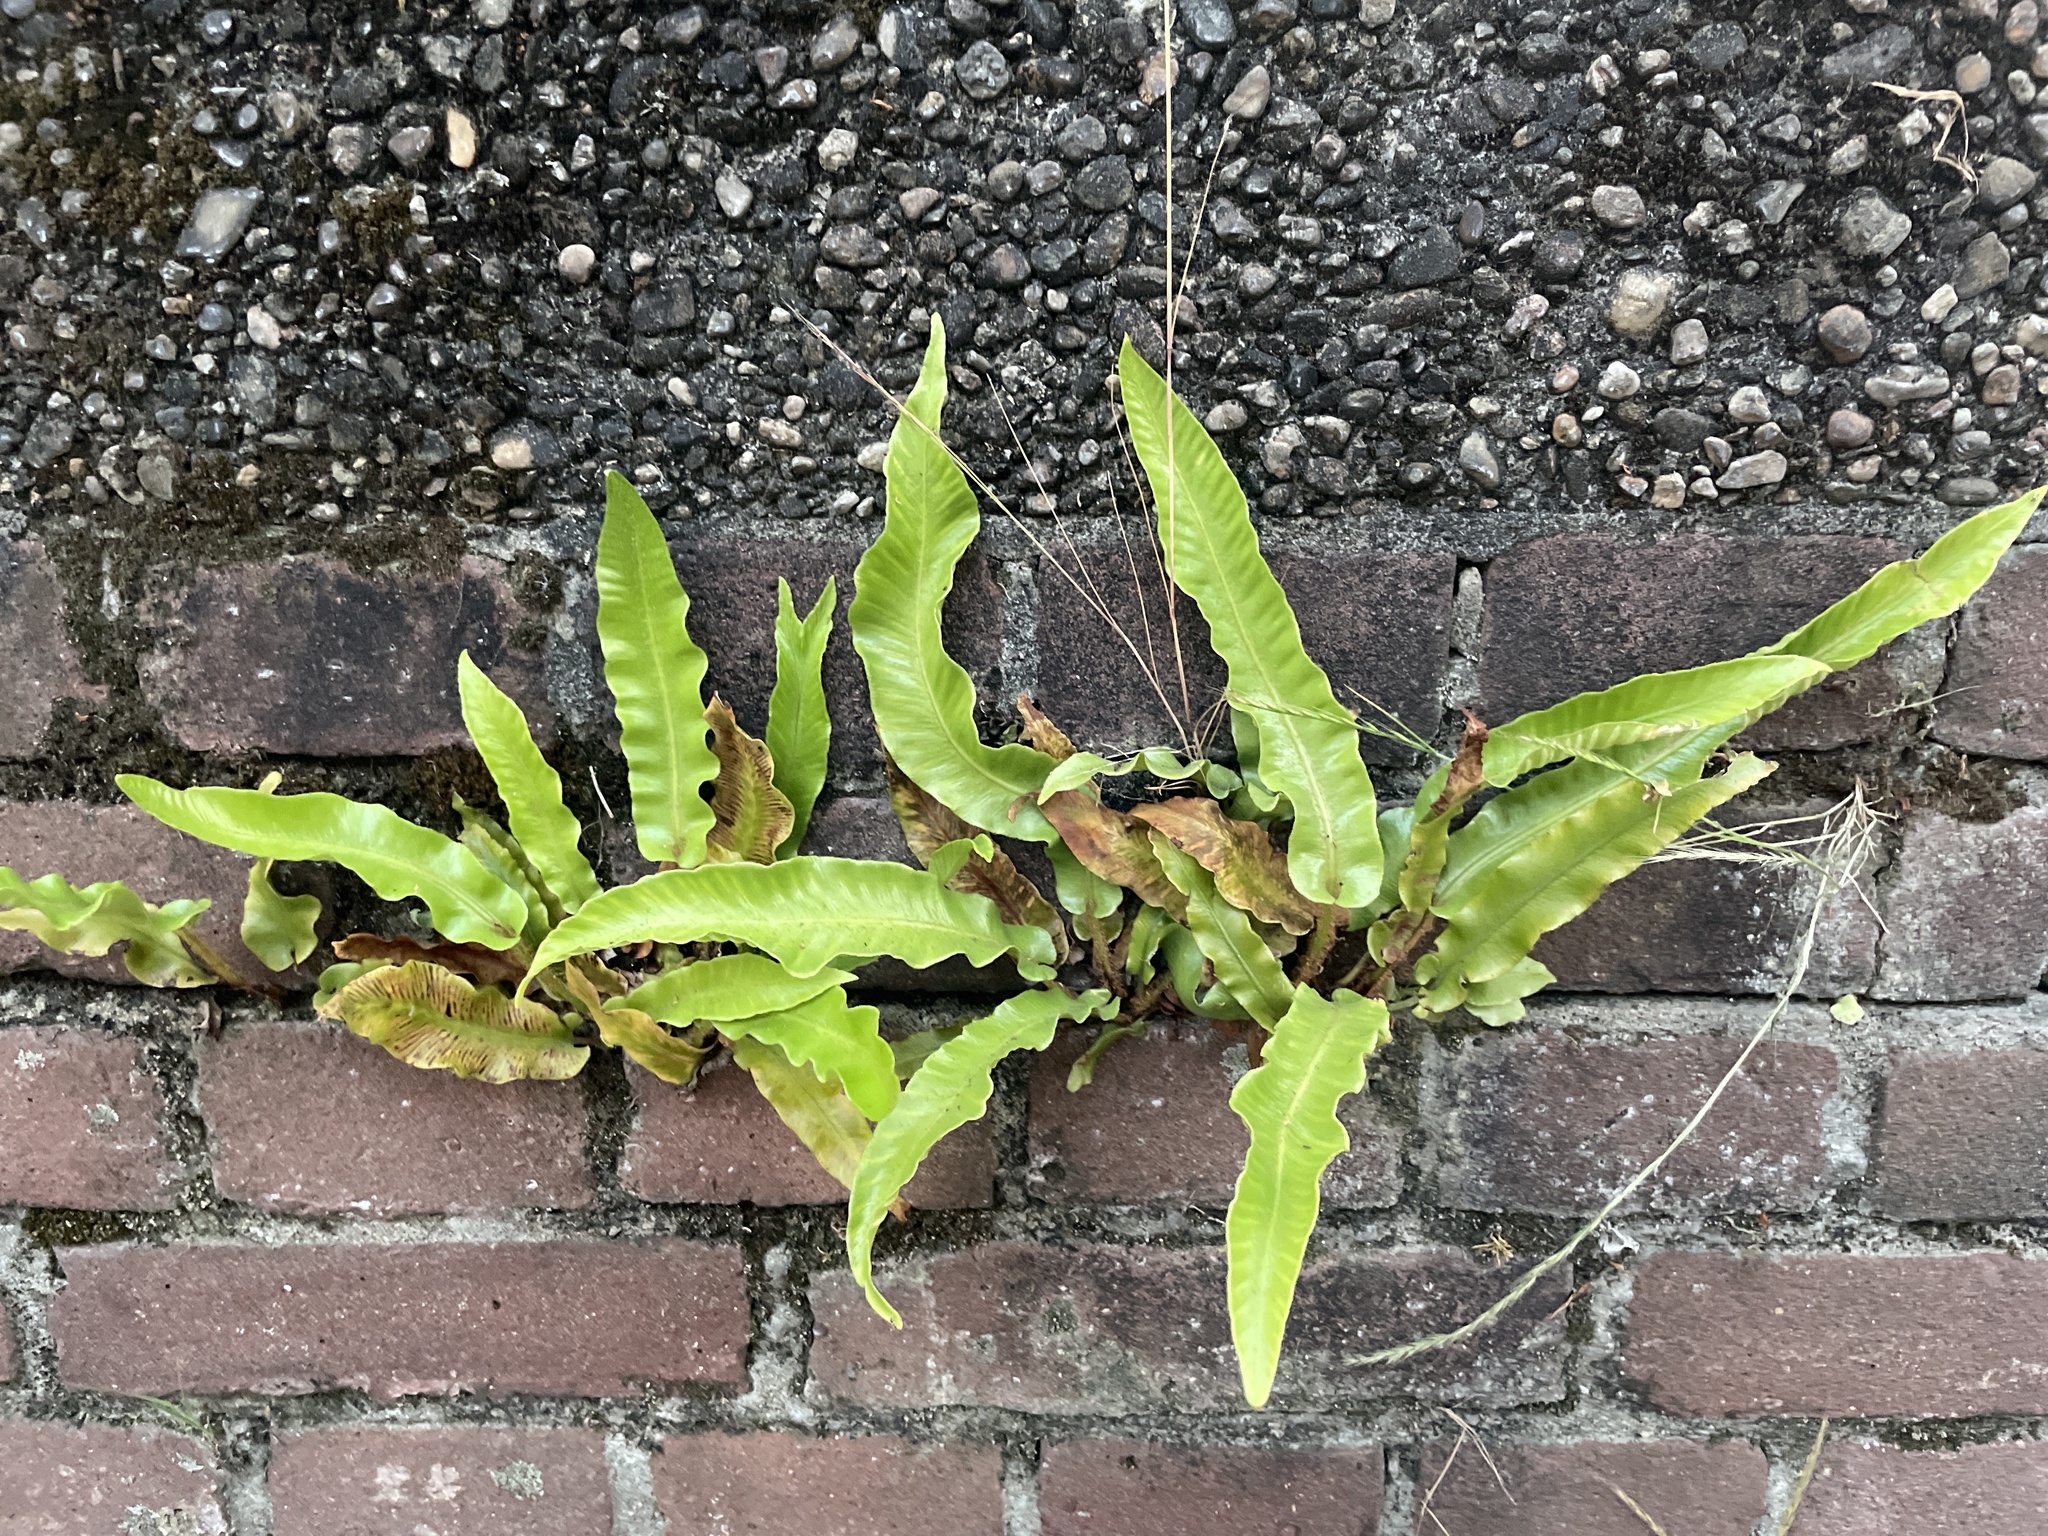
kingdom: Plantae
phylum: Tracheophyta
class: Polypodiopsida
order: Polypodiales
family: Aspleniaceae
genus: Asplenium
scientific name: Asplenium scolopendrium
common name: Hart's-tongue fern
